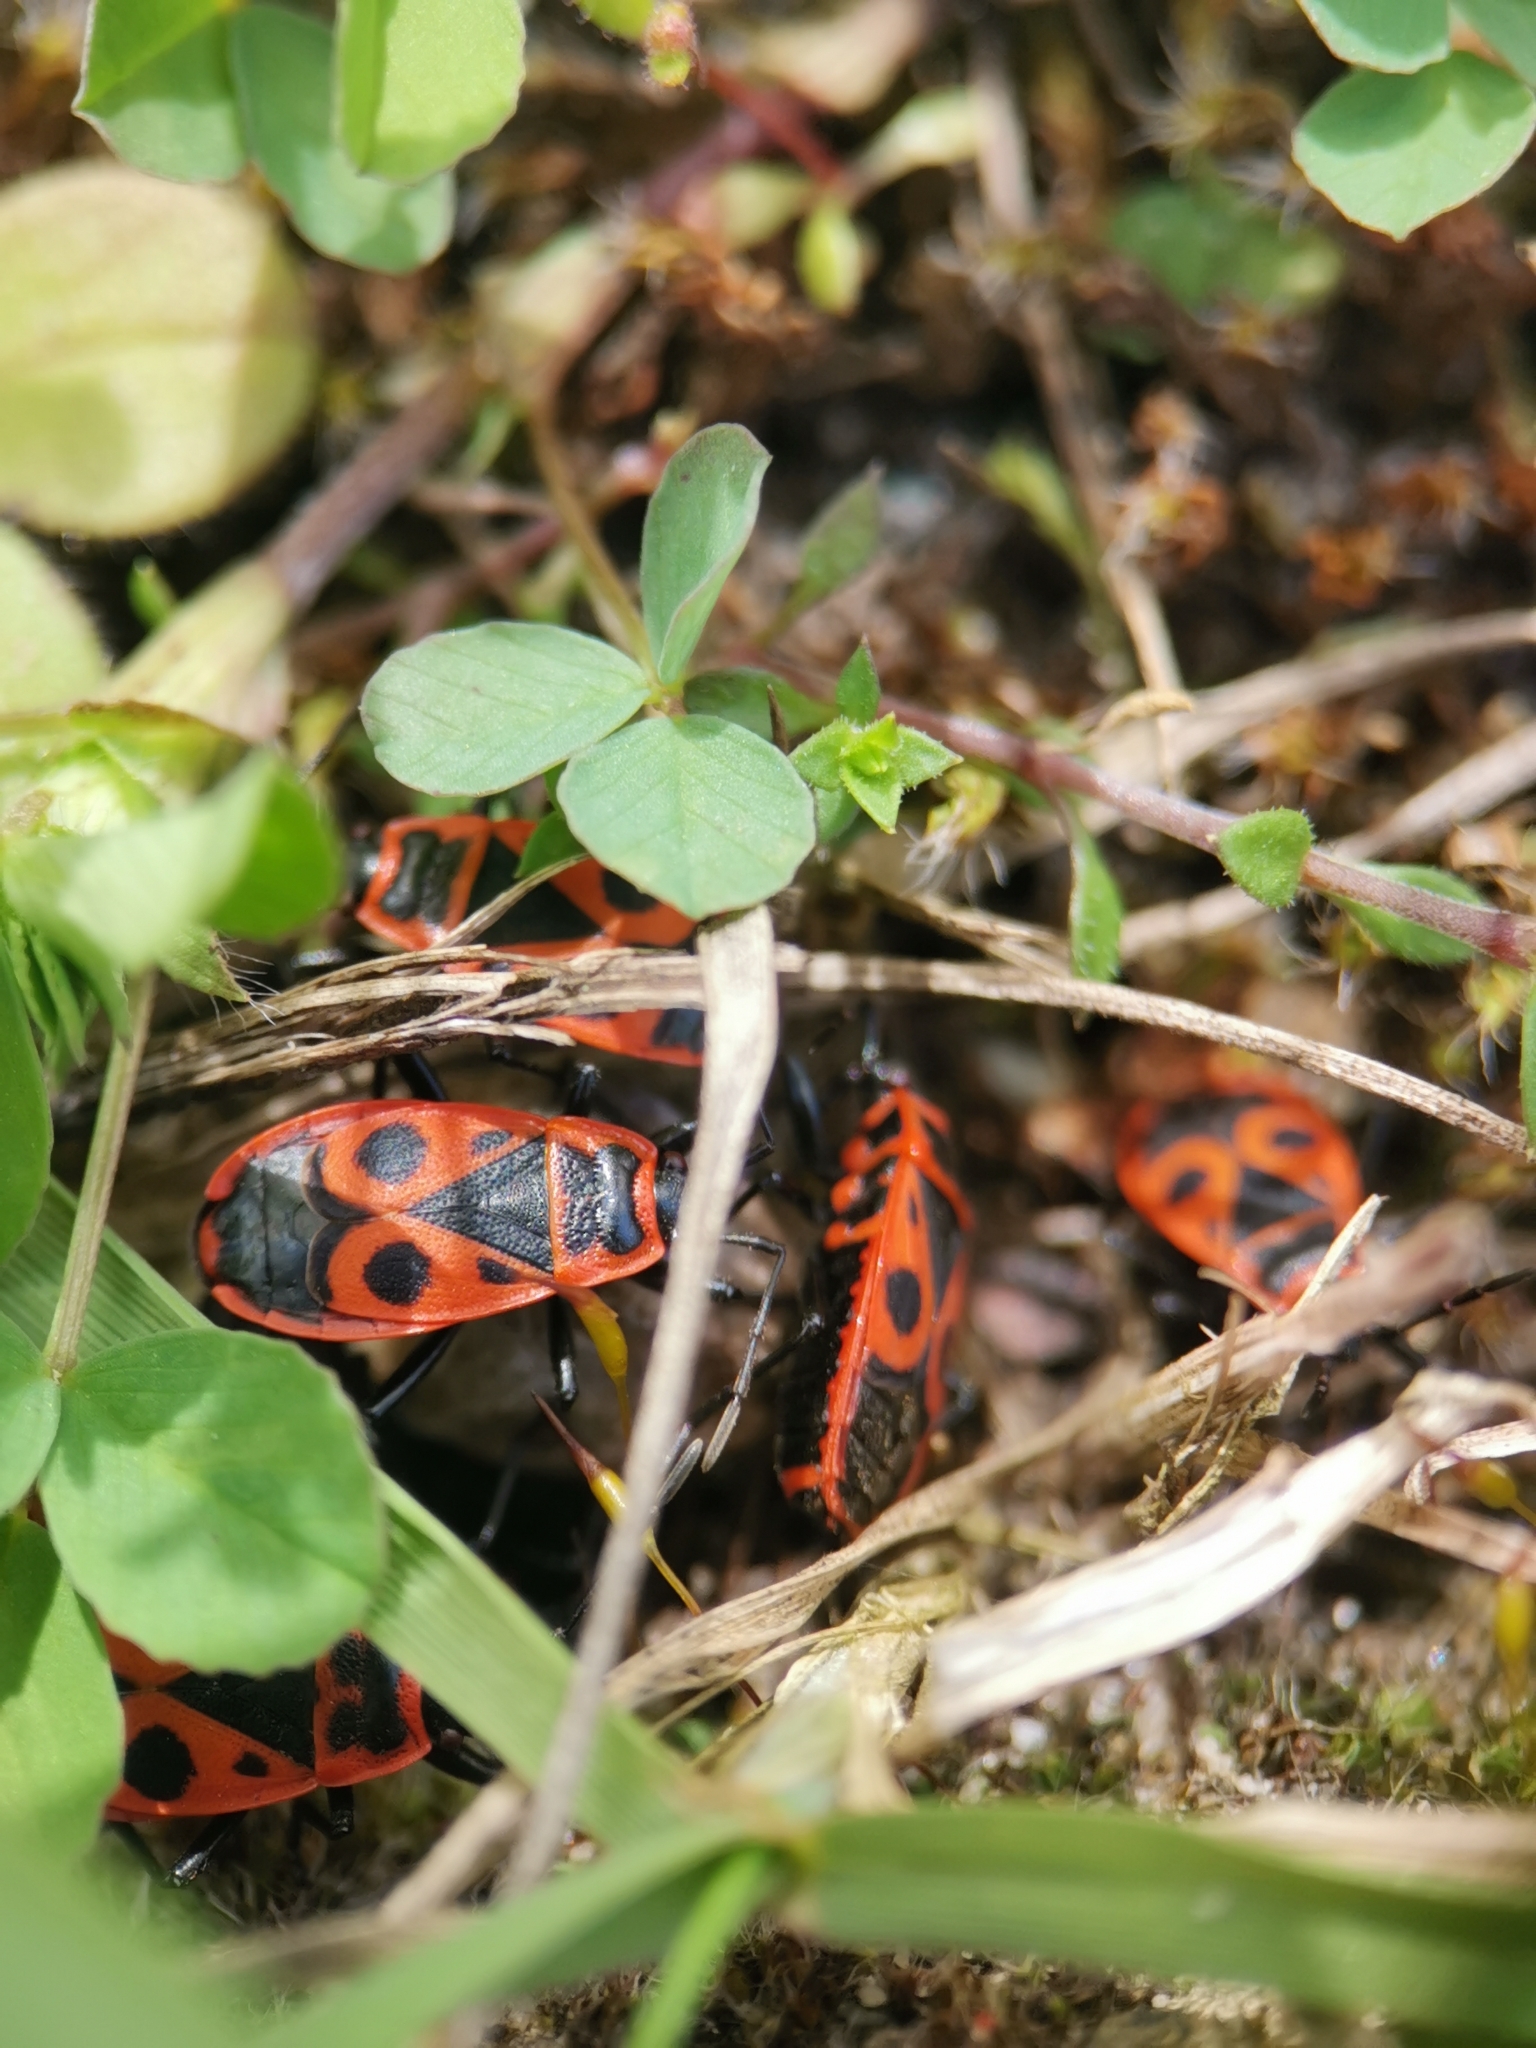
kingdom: Animalia
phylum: Arthropoda
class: Insecta
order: Hemiptera
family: Pyrrhocoridae
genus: Pyrrhocoris
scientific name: Pyrrhocoris apterus
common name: Firebug
